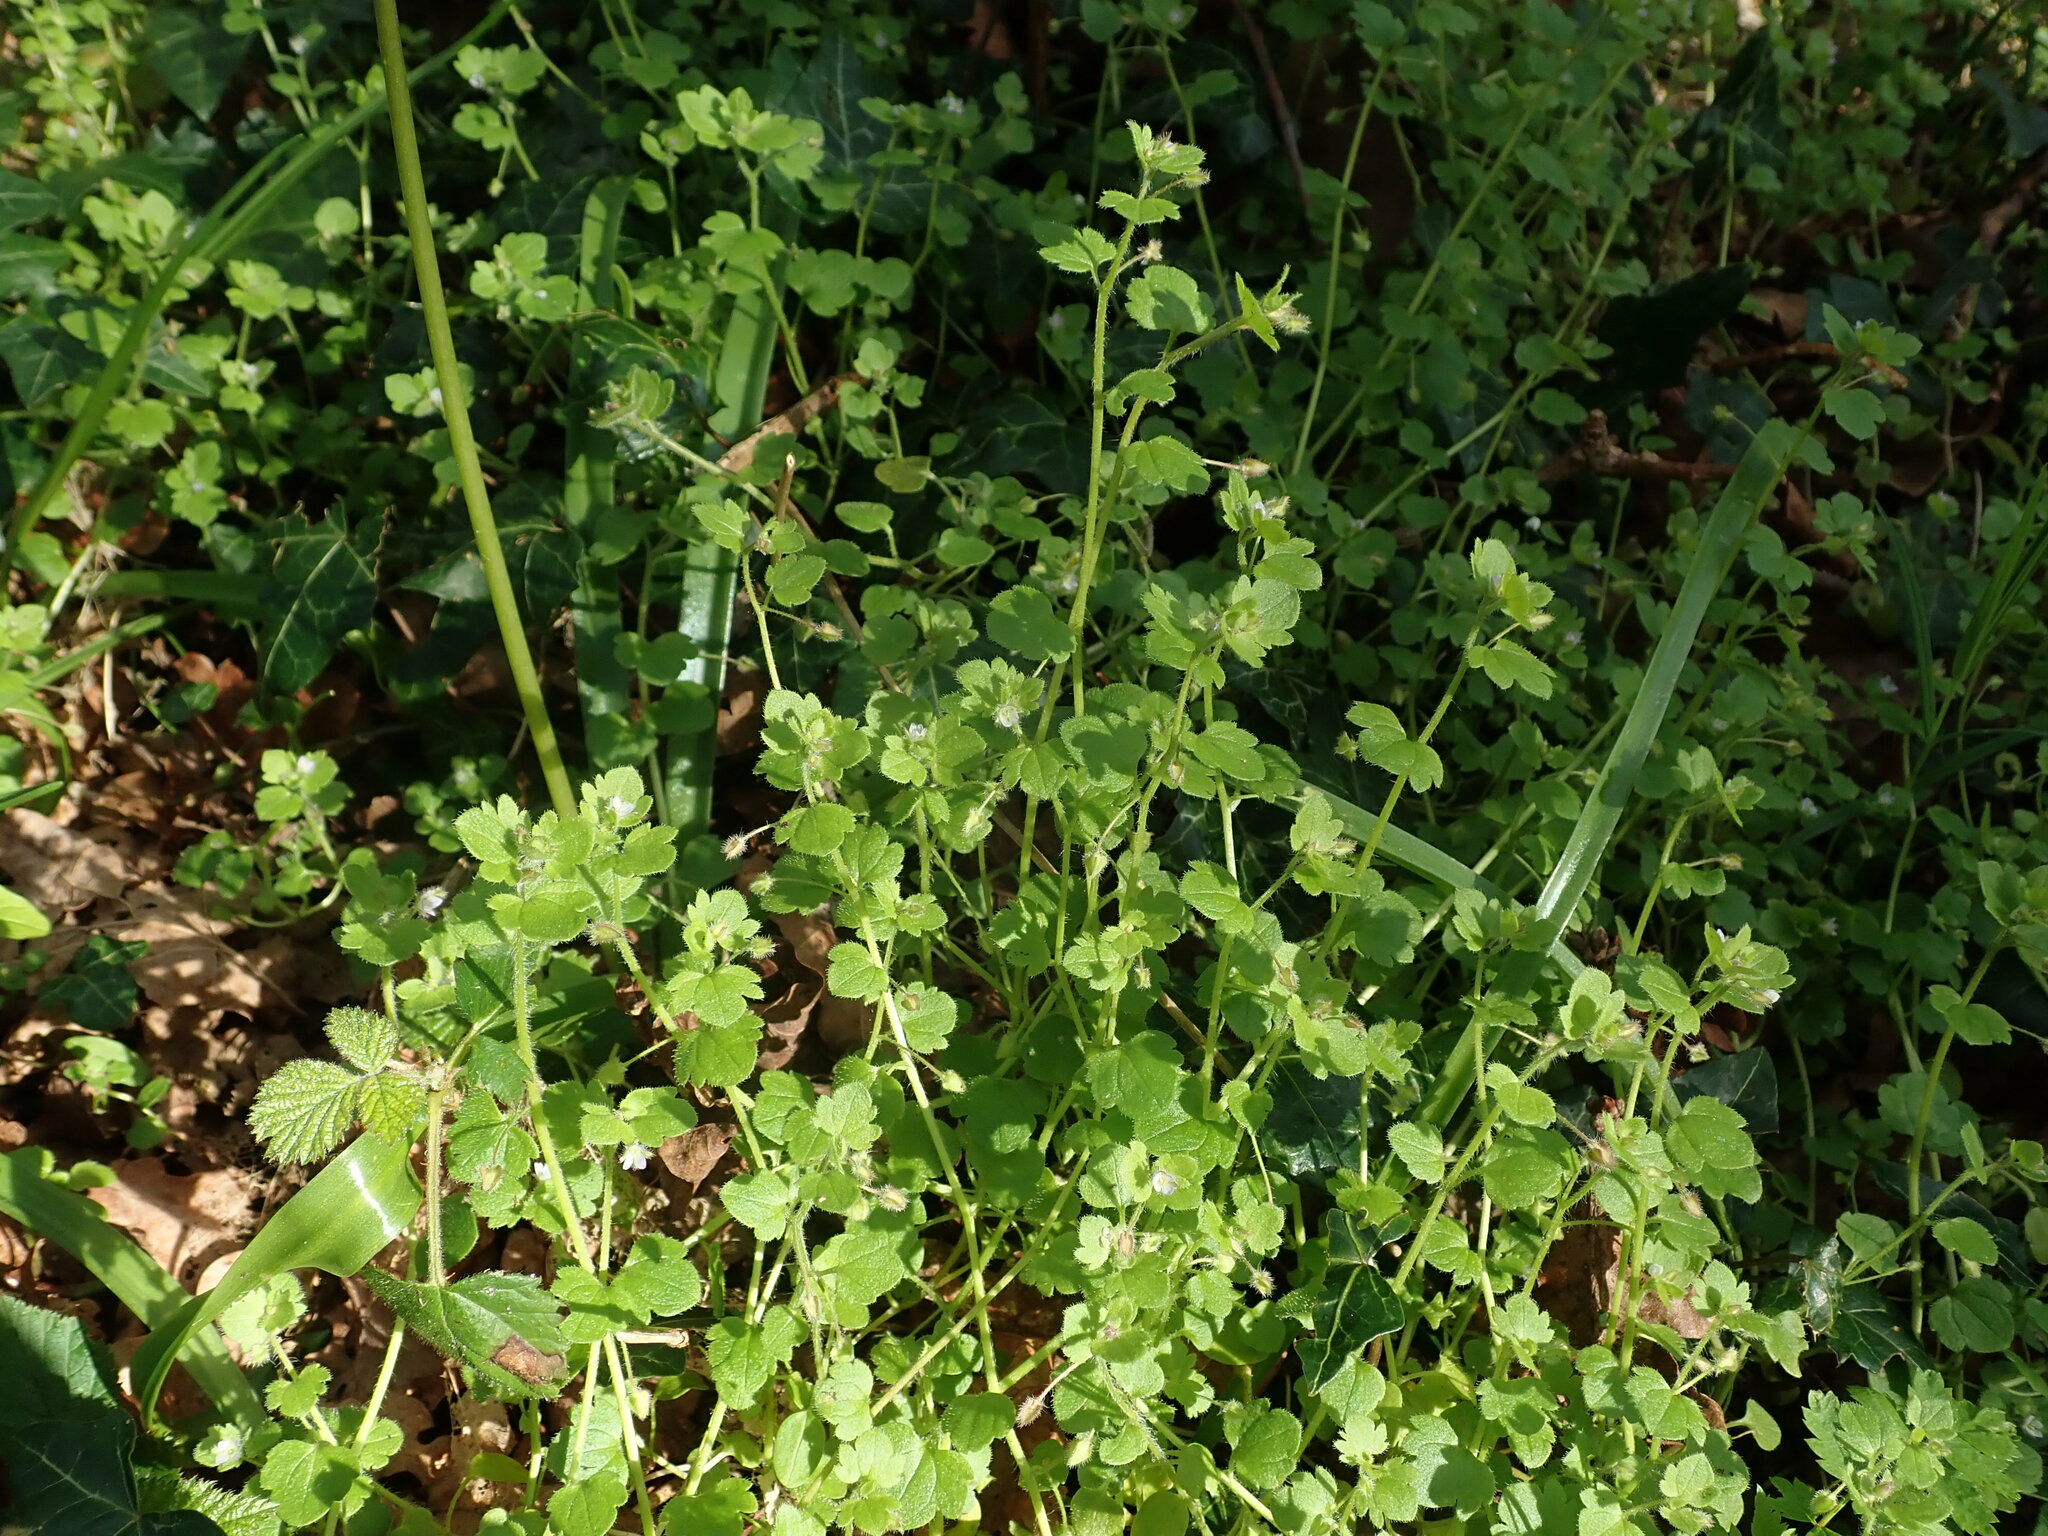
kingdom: Plantae
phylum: Tracheophyta
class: Magnoliopsida
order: Lamiales
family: Plantaginaceae
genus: Veronica
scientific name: Veronica sublobata
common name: False ivy-leaved speedwell
